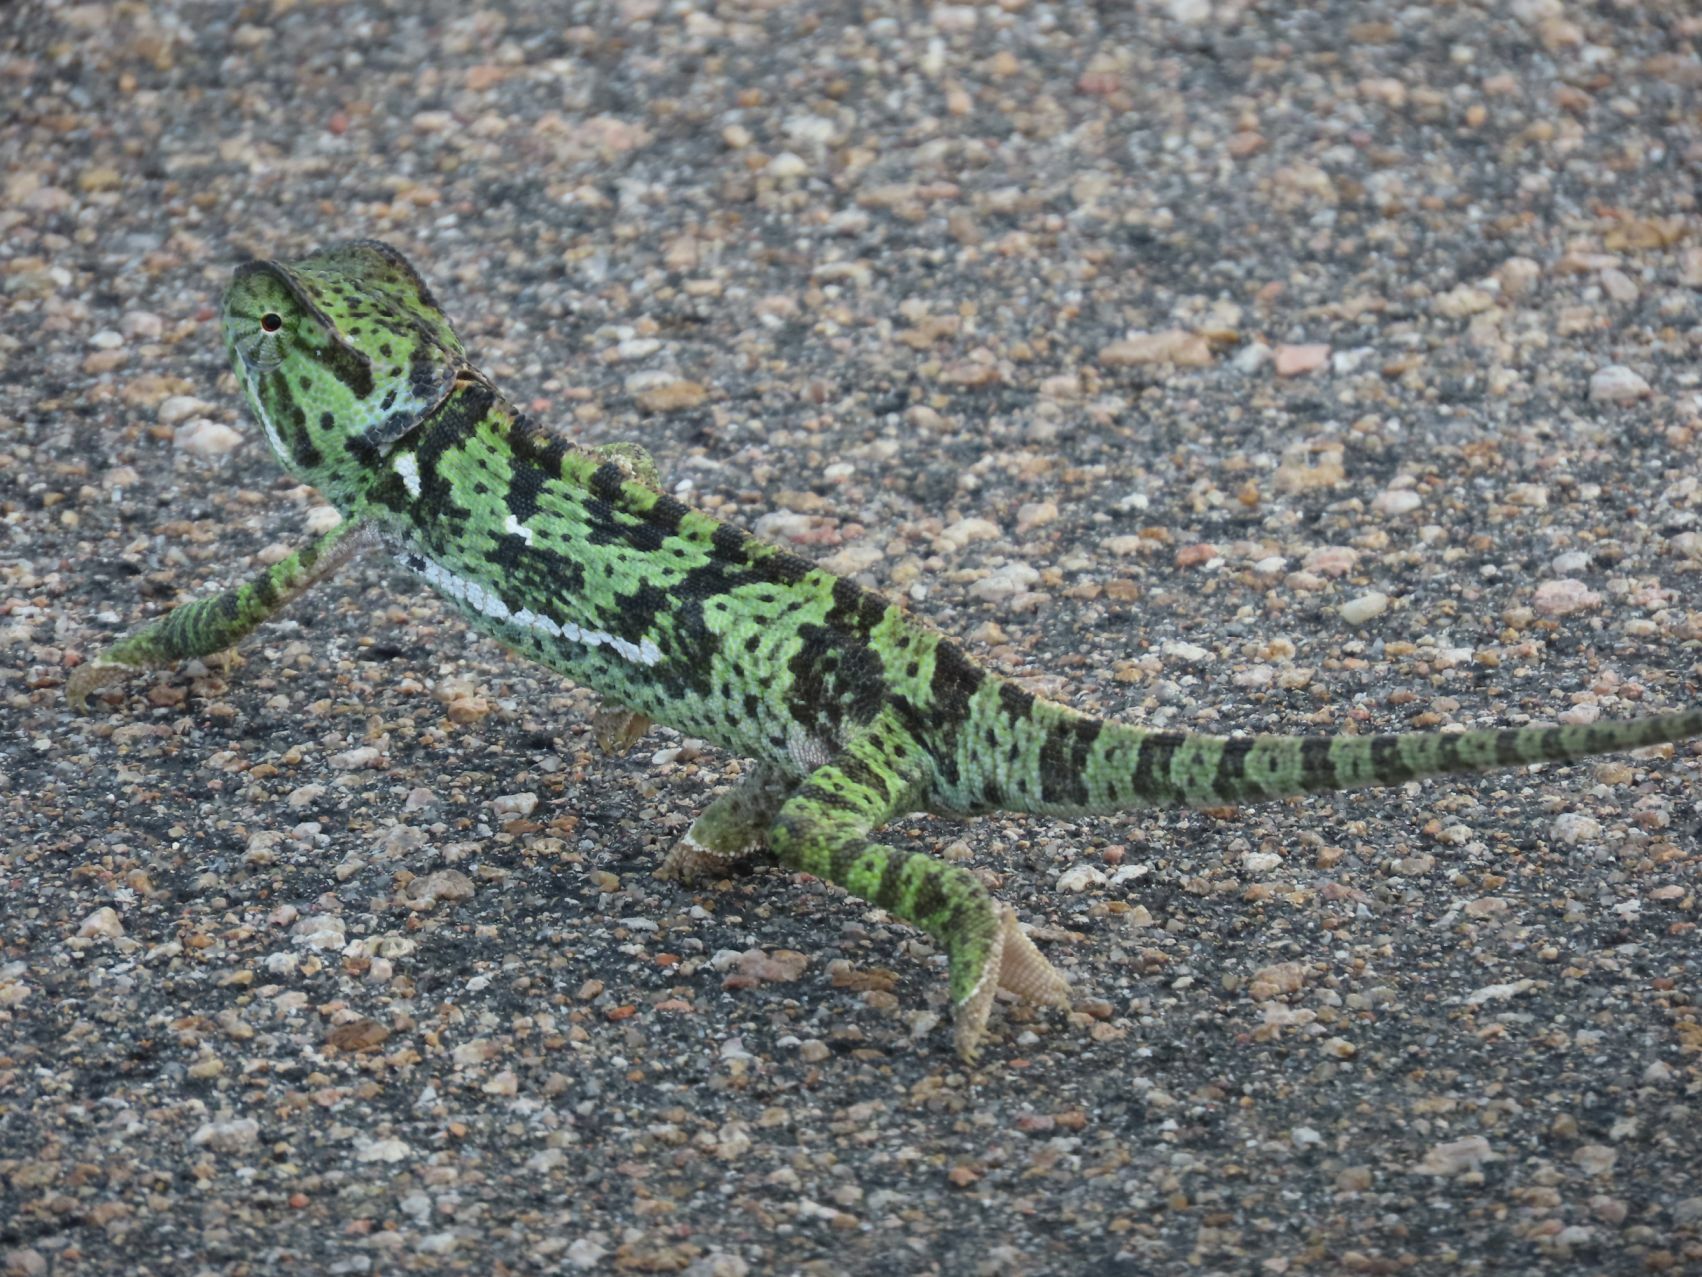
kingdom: Animalia
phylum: Chordata
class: Squamata
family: Chamaeleonidae
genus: Chamaeleo
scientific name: Chamaeleo dilepis
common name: Flapneck chameleon
